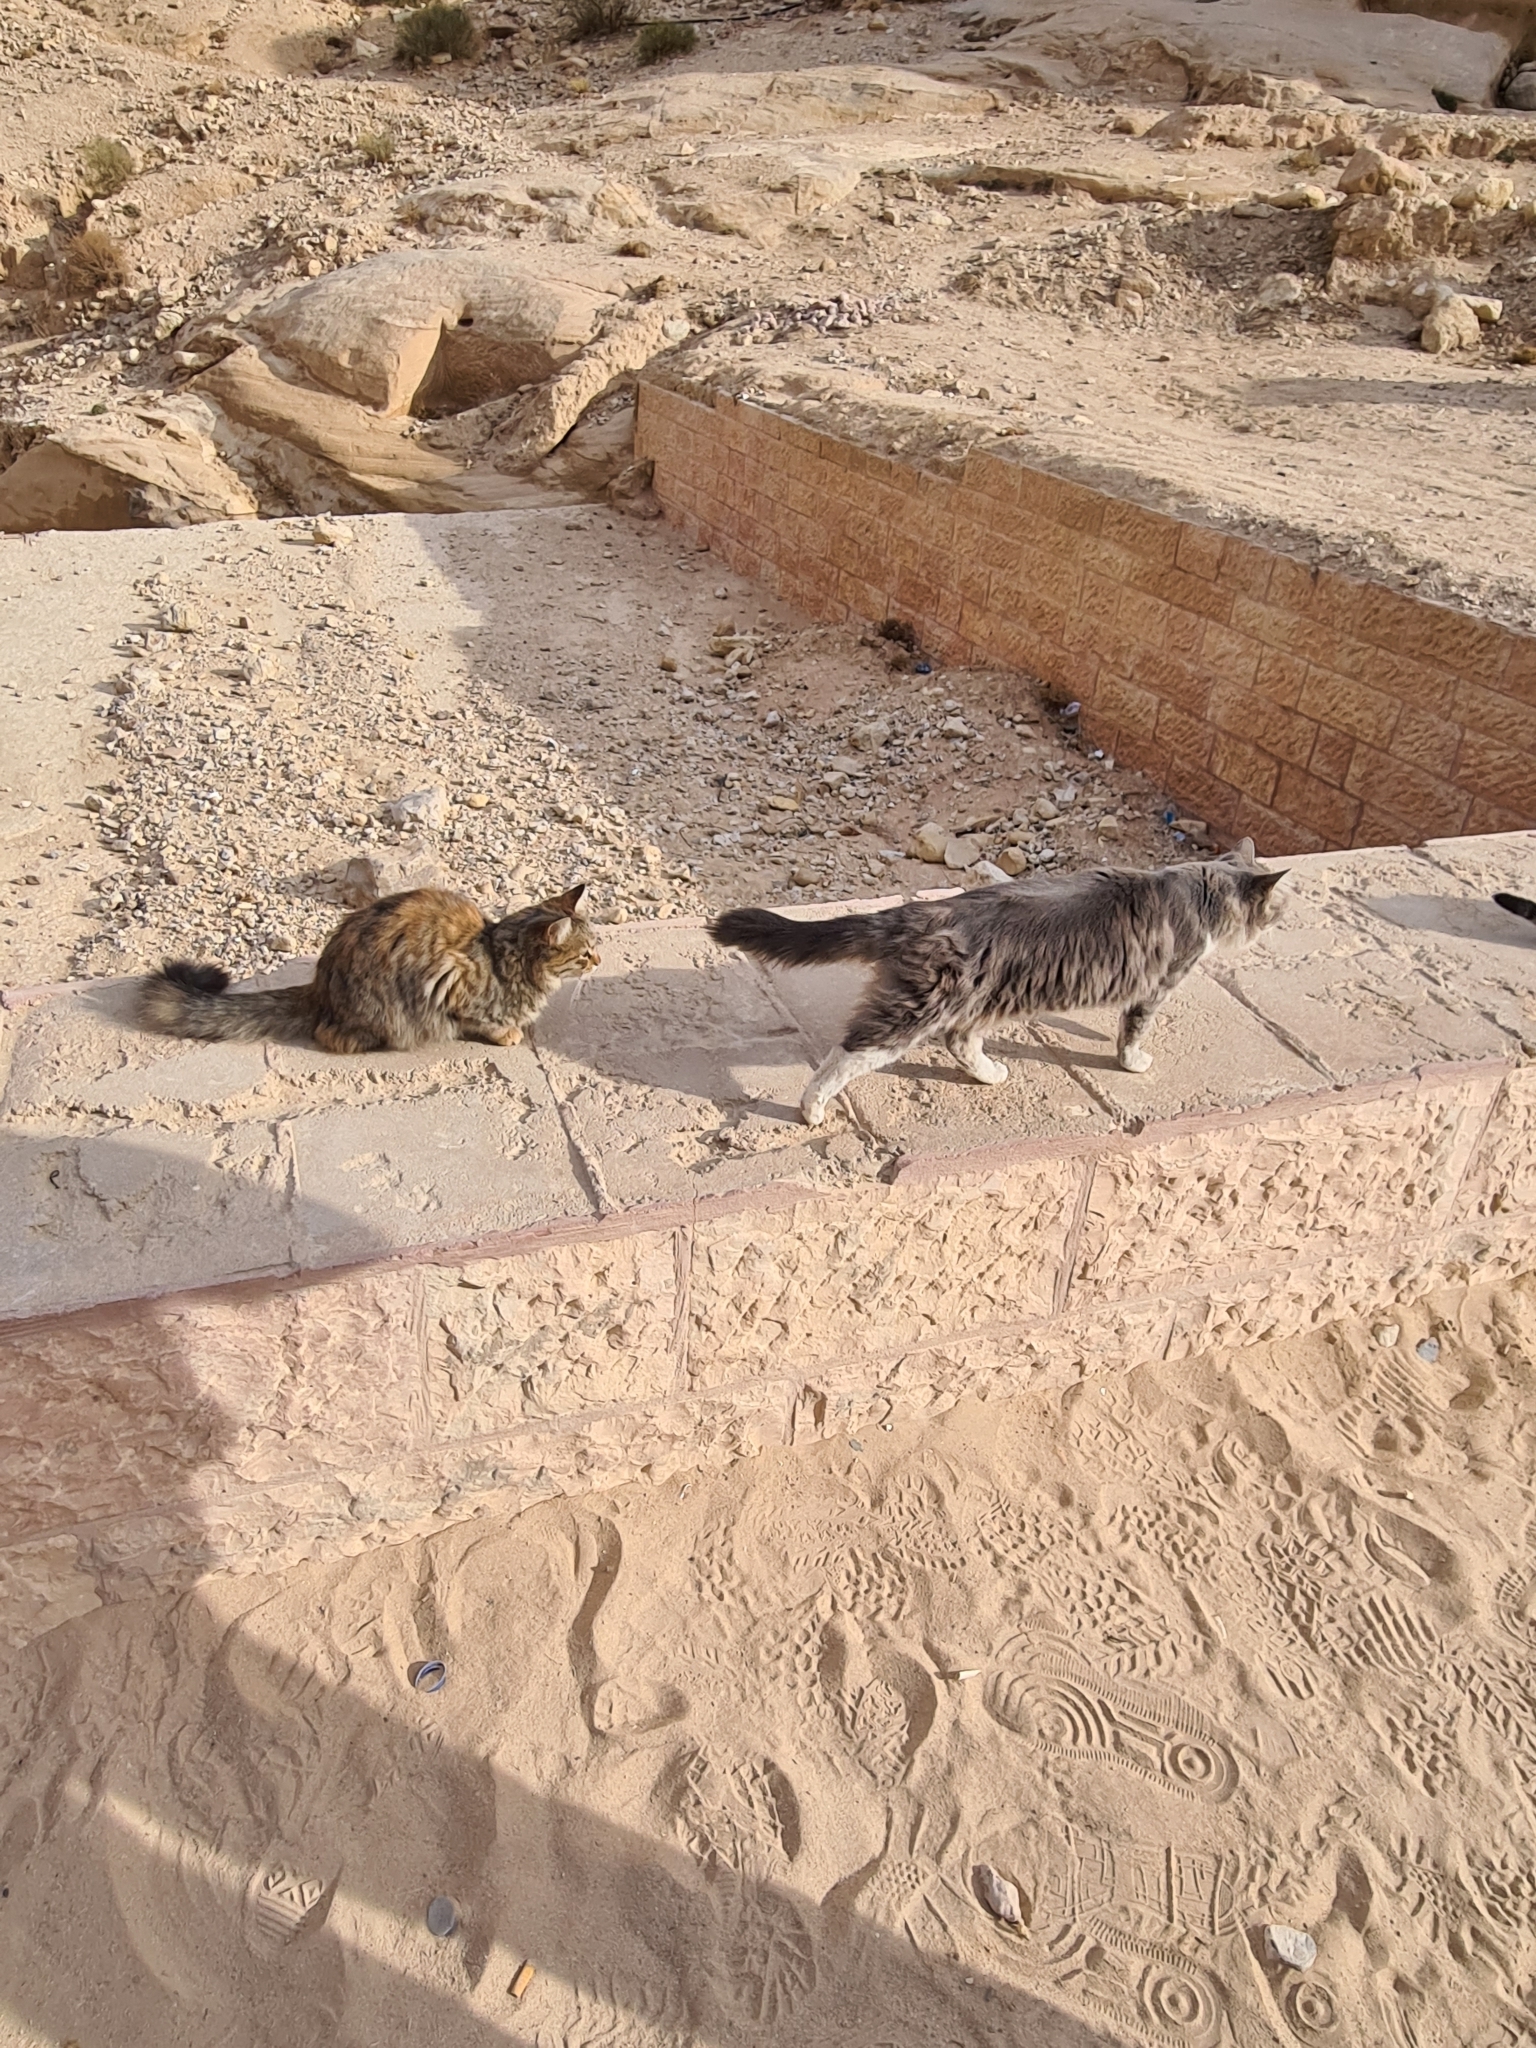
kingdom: Animalia
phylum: Chordata
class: Mammalia
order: Carnivora
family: Felidae
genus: Felis
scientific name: Felis catus
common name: Domestic cat
